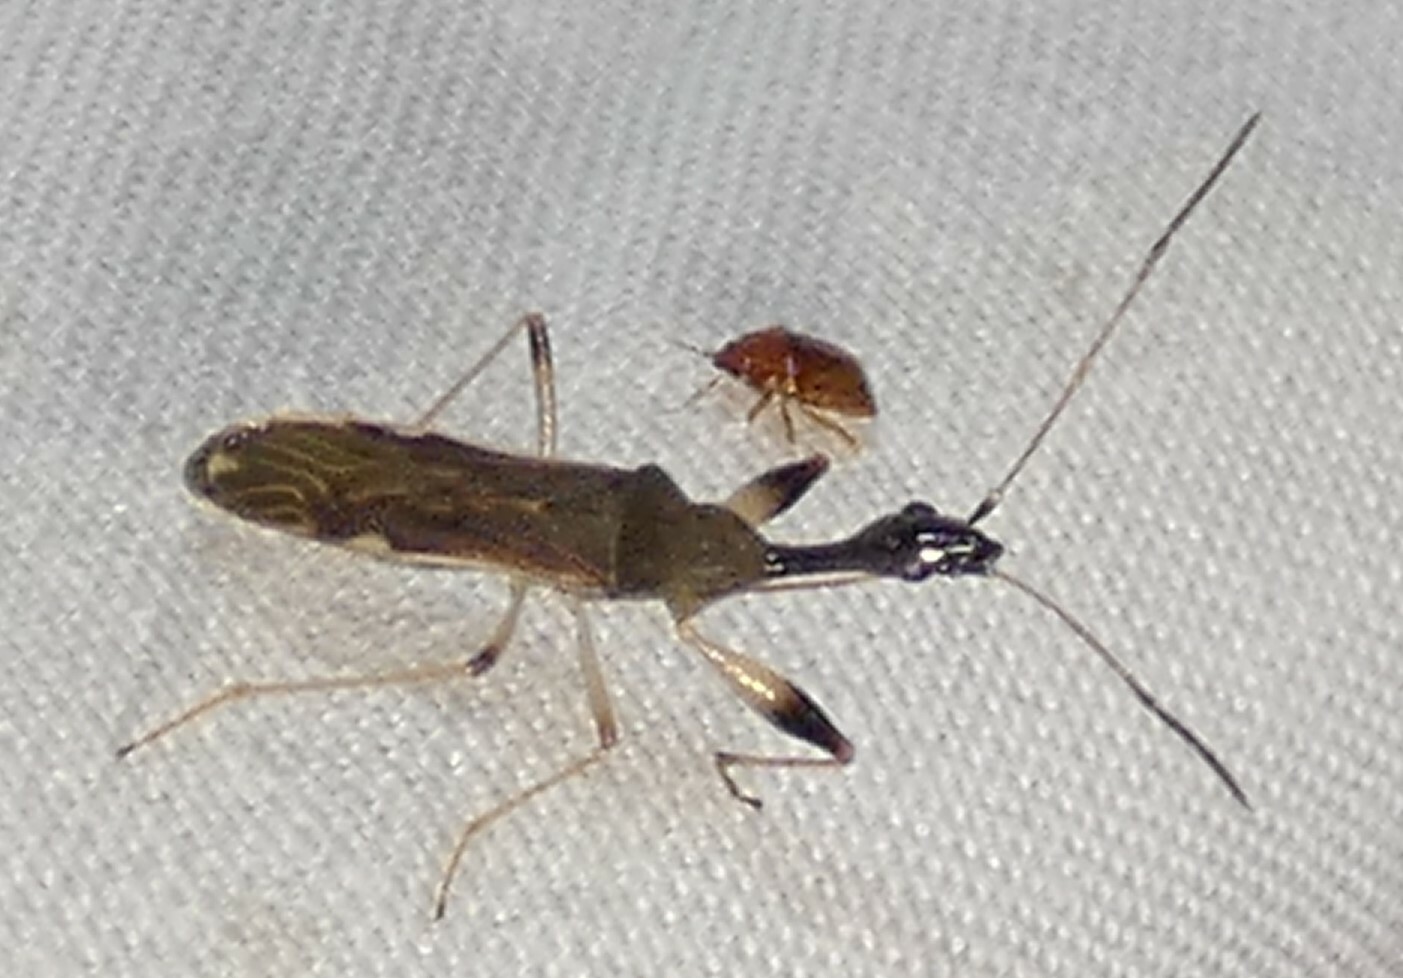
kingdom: Animalia
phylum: Arthropoda
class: Insecta
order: Hemiptera
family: Rhyparochromidae
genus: Myodocha
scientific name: Myodocha serripes
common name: Long-necked seed bug
